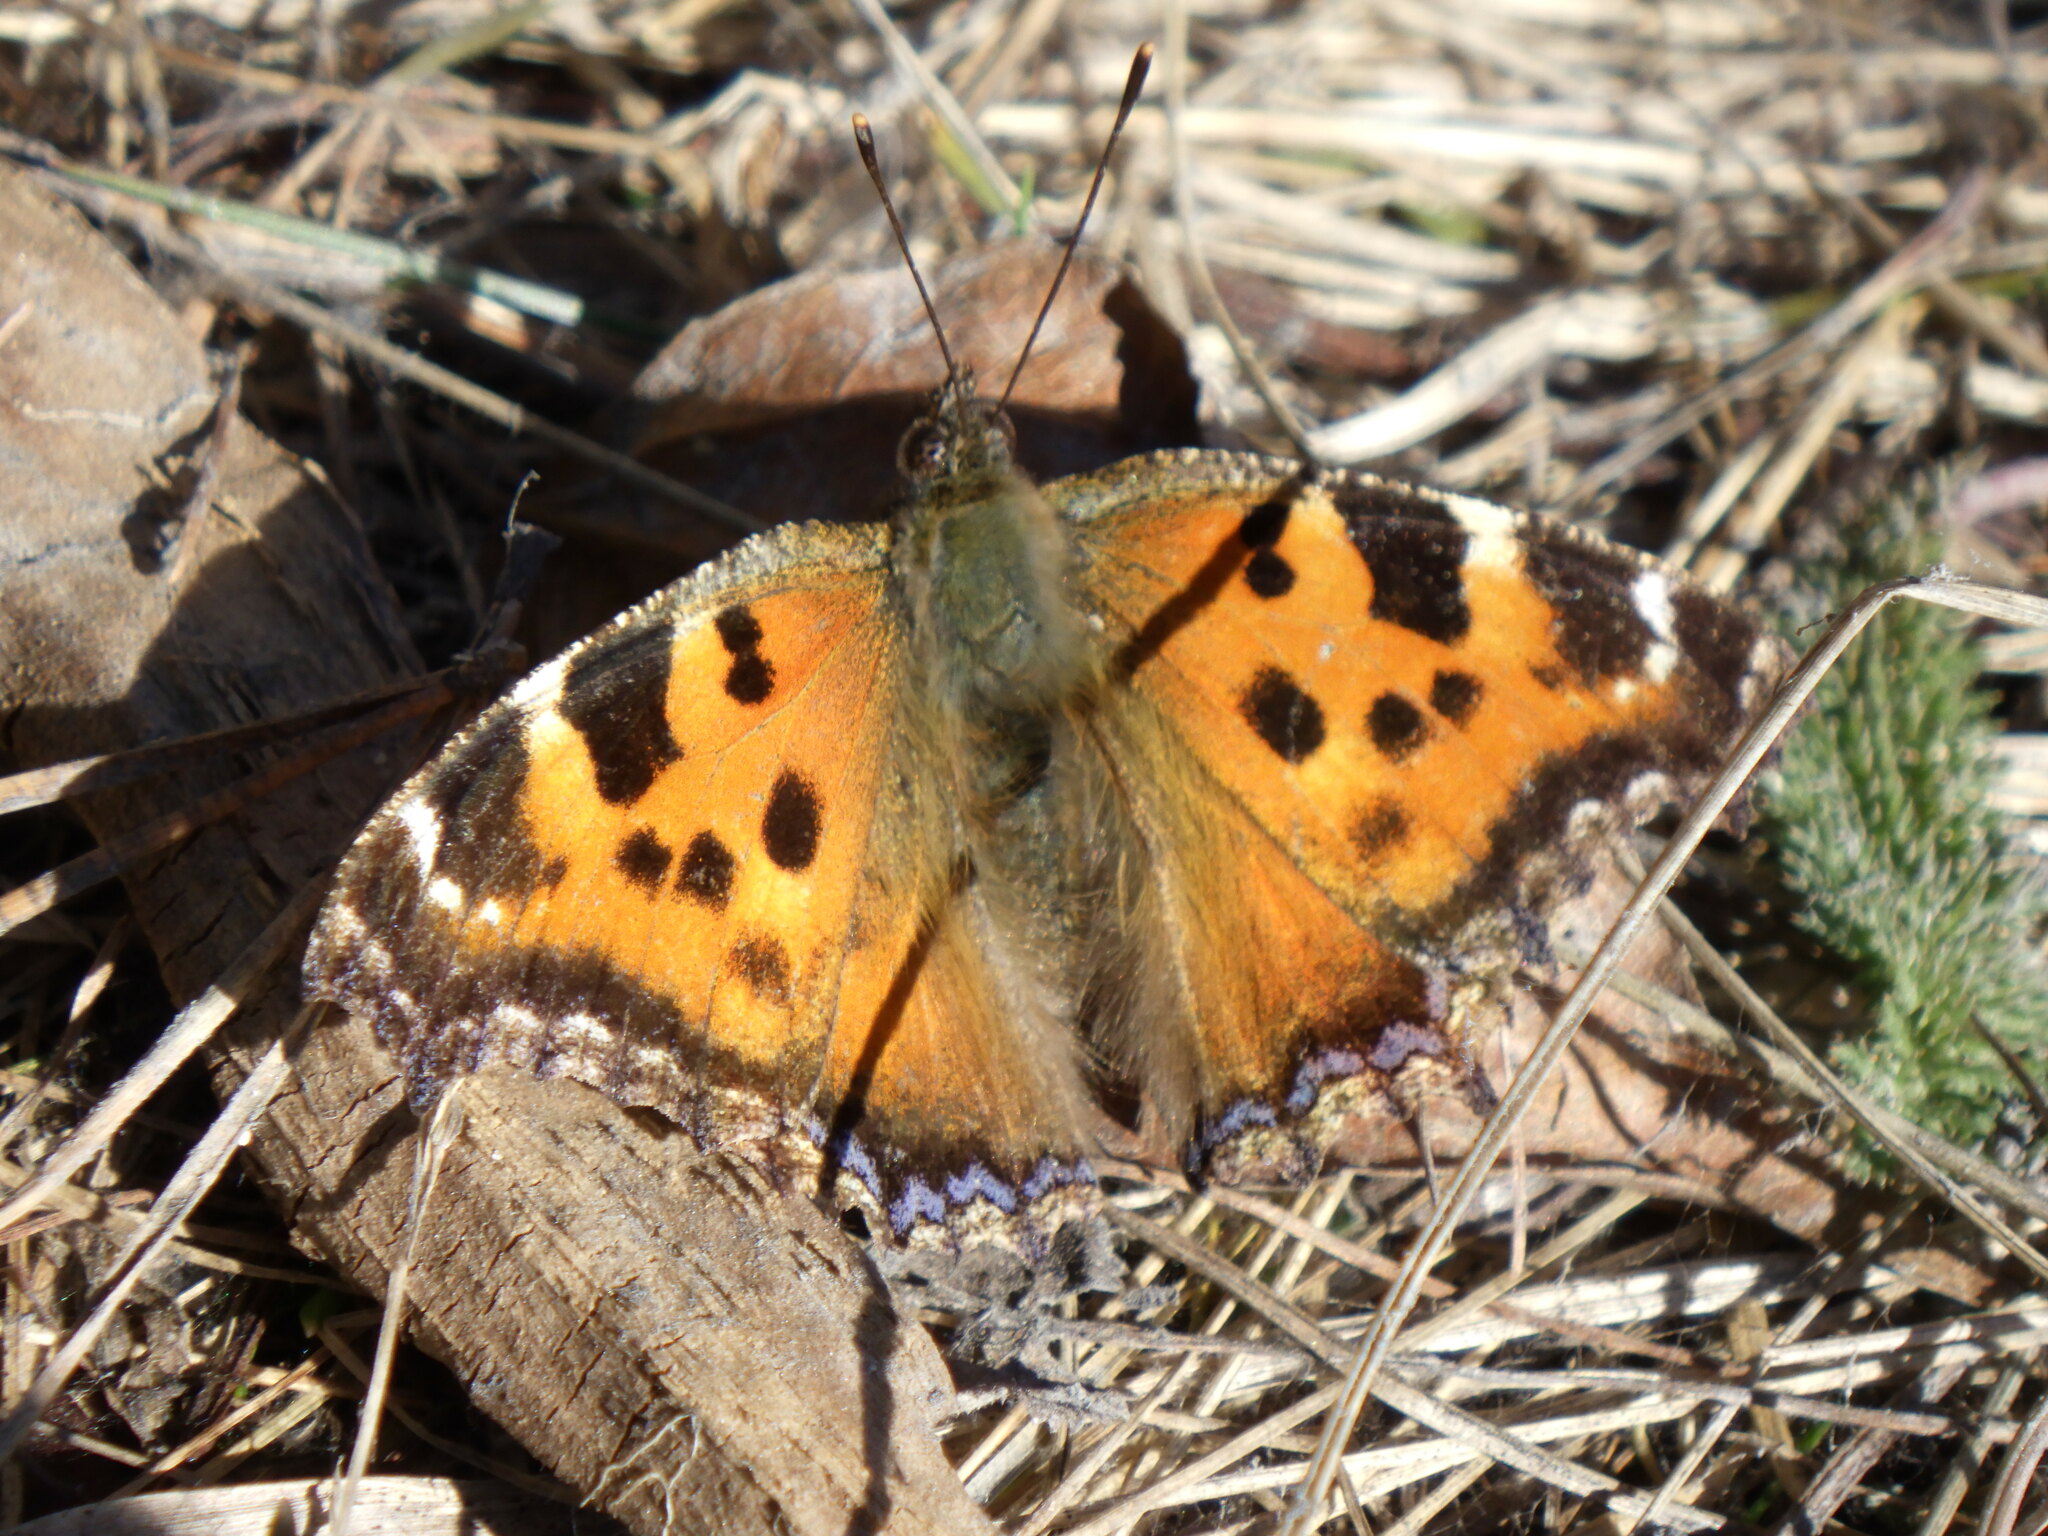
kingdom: Animalia
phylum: Arthropoda
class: Insecta
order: Lepidoptera
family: Nymphalidae
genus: Nymphalis
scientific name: Nymphalis xanthomelas
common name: Scarce tortoiseshell
